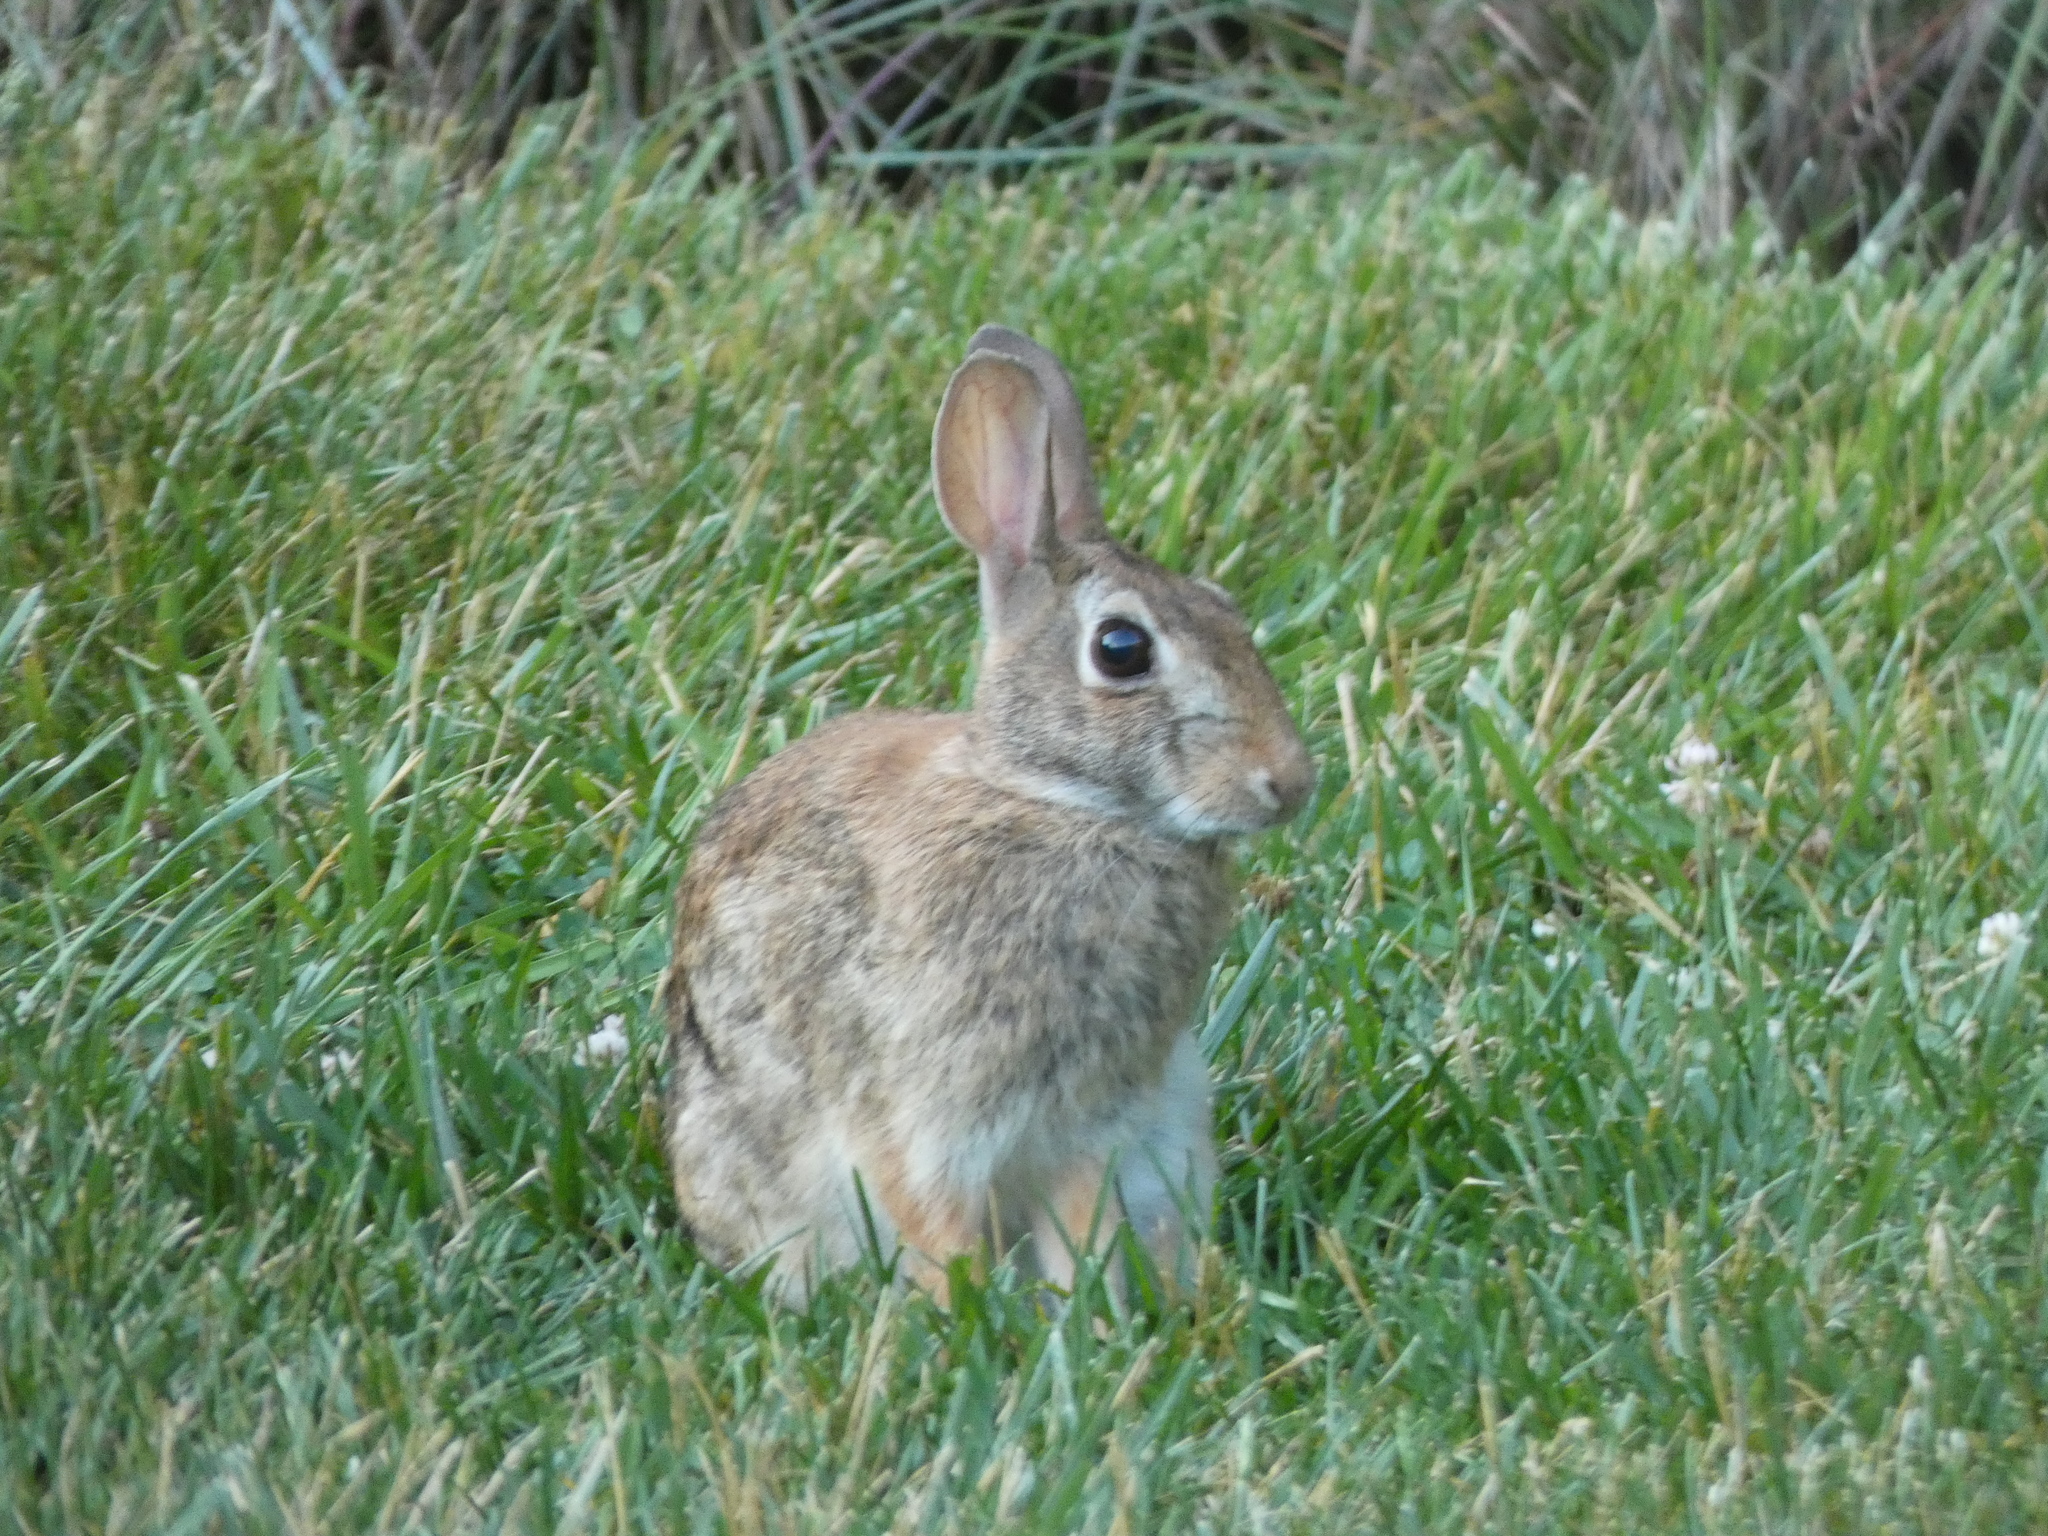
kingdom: Animalia
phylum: Chordata
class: Mammalia
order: Lagomorpha
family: Leporidae
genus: Sylvilagus
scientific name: Sylvilagus floridanus
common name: Eastern cottontail
